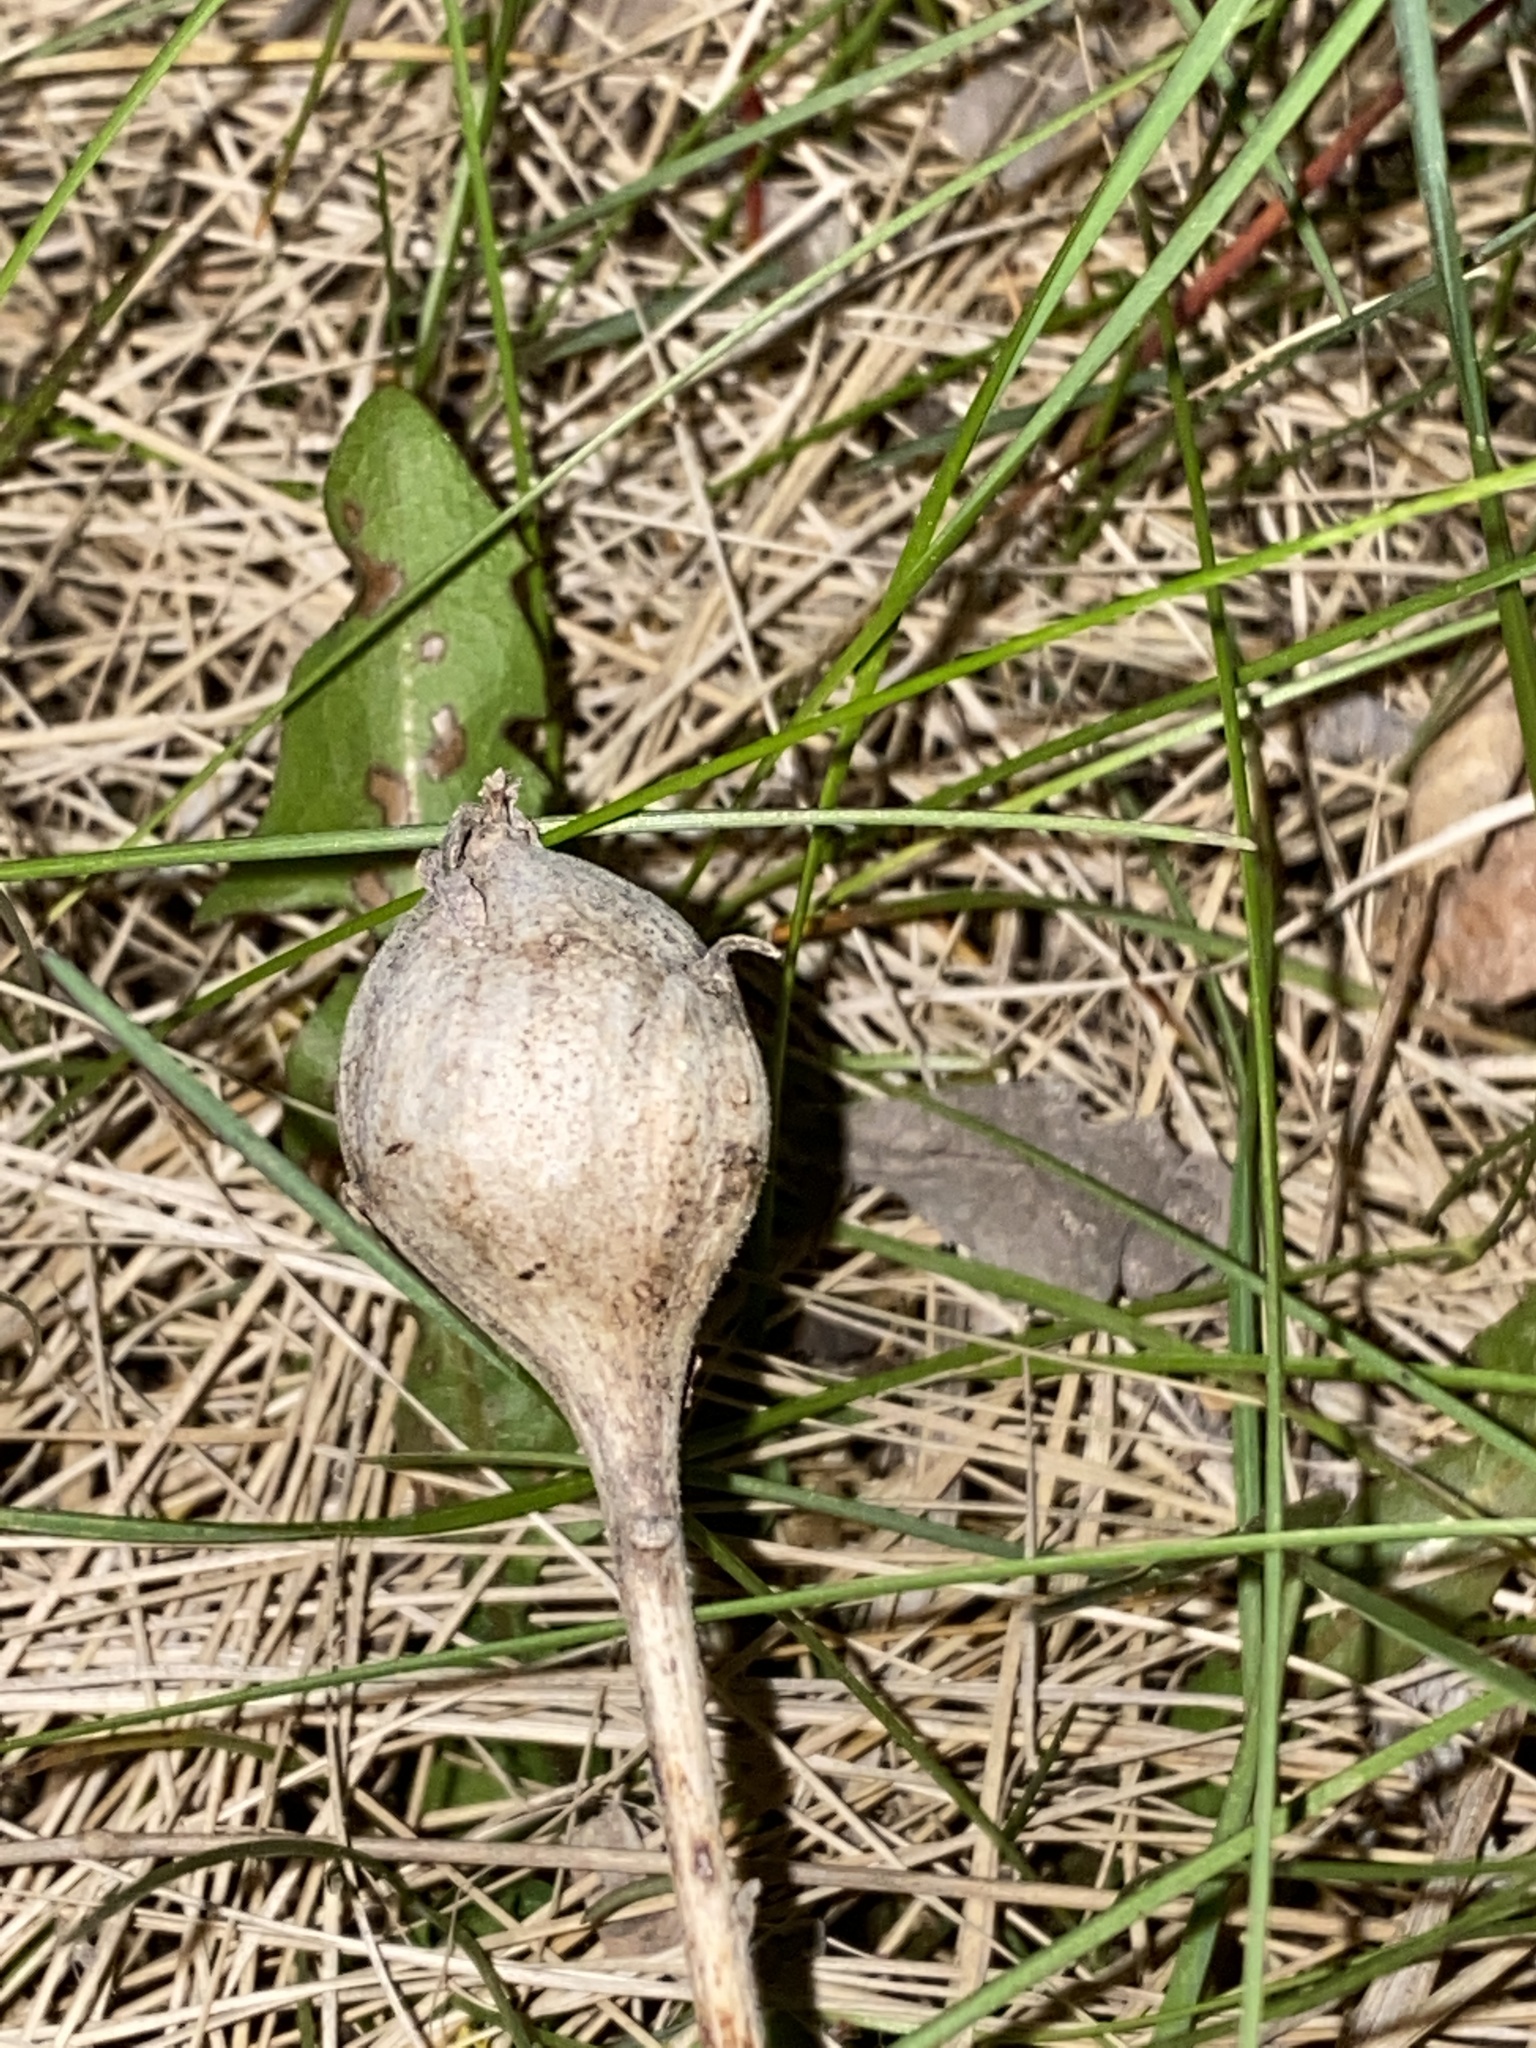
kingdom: Animalia
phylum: Arthropoda
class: Insecta
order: Diptera
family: Tephritidae
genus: Eurosta
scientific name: Eurosta solidaginis
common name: Goldenrod gall fly
